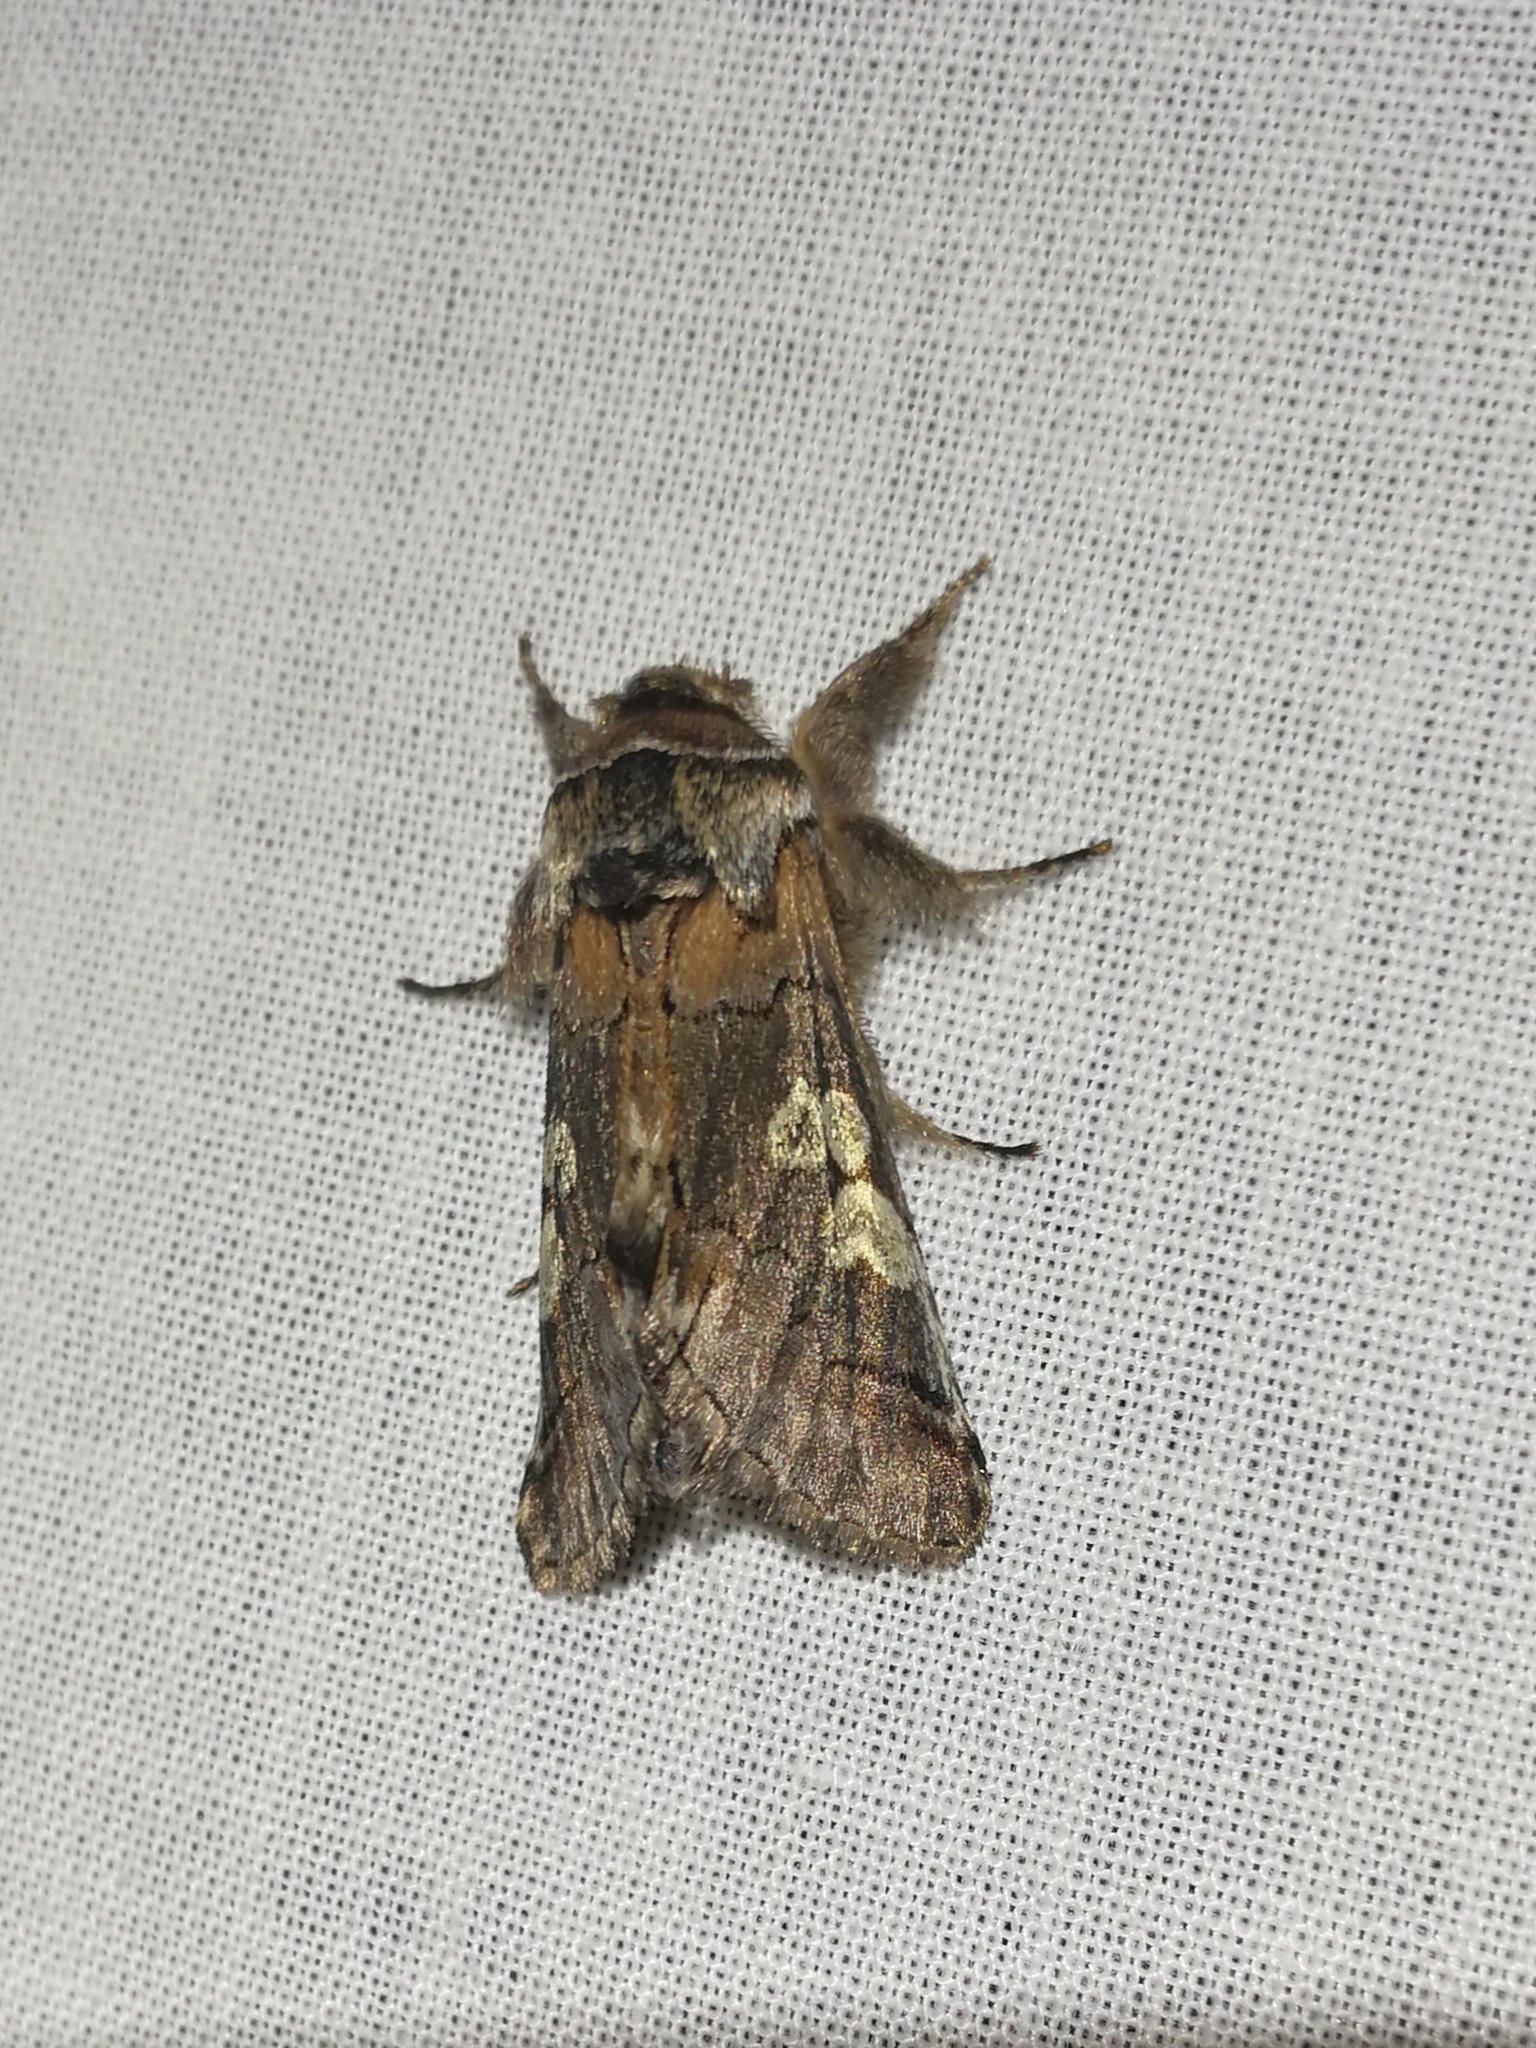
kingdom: Animalia
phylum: Arthropoda
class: Insecta
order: Lepidoptera
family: Noctuidae
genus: Diloba
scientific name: Diloba caeruleocephala
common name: Figure of eight
